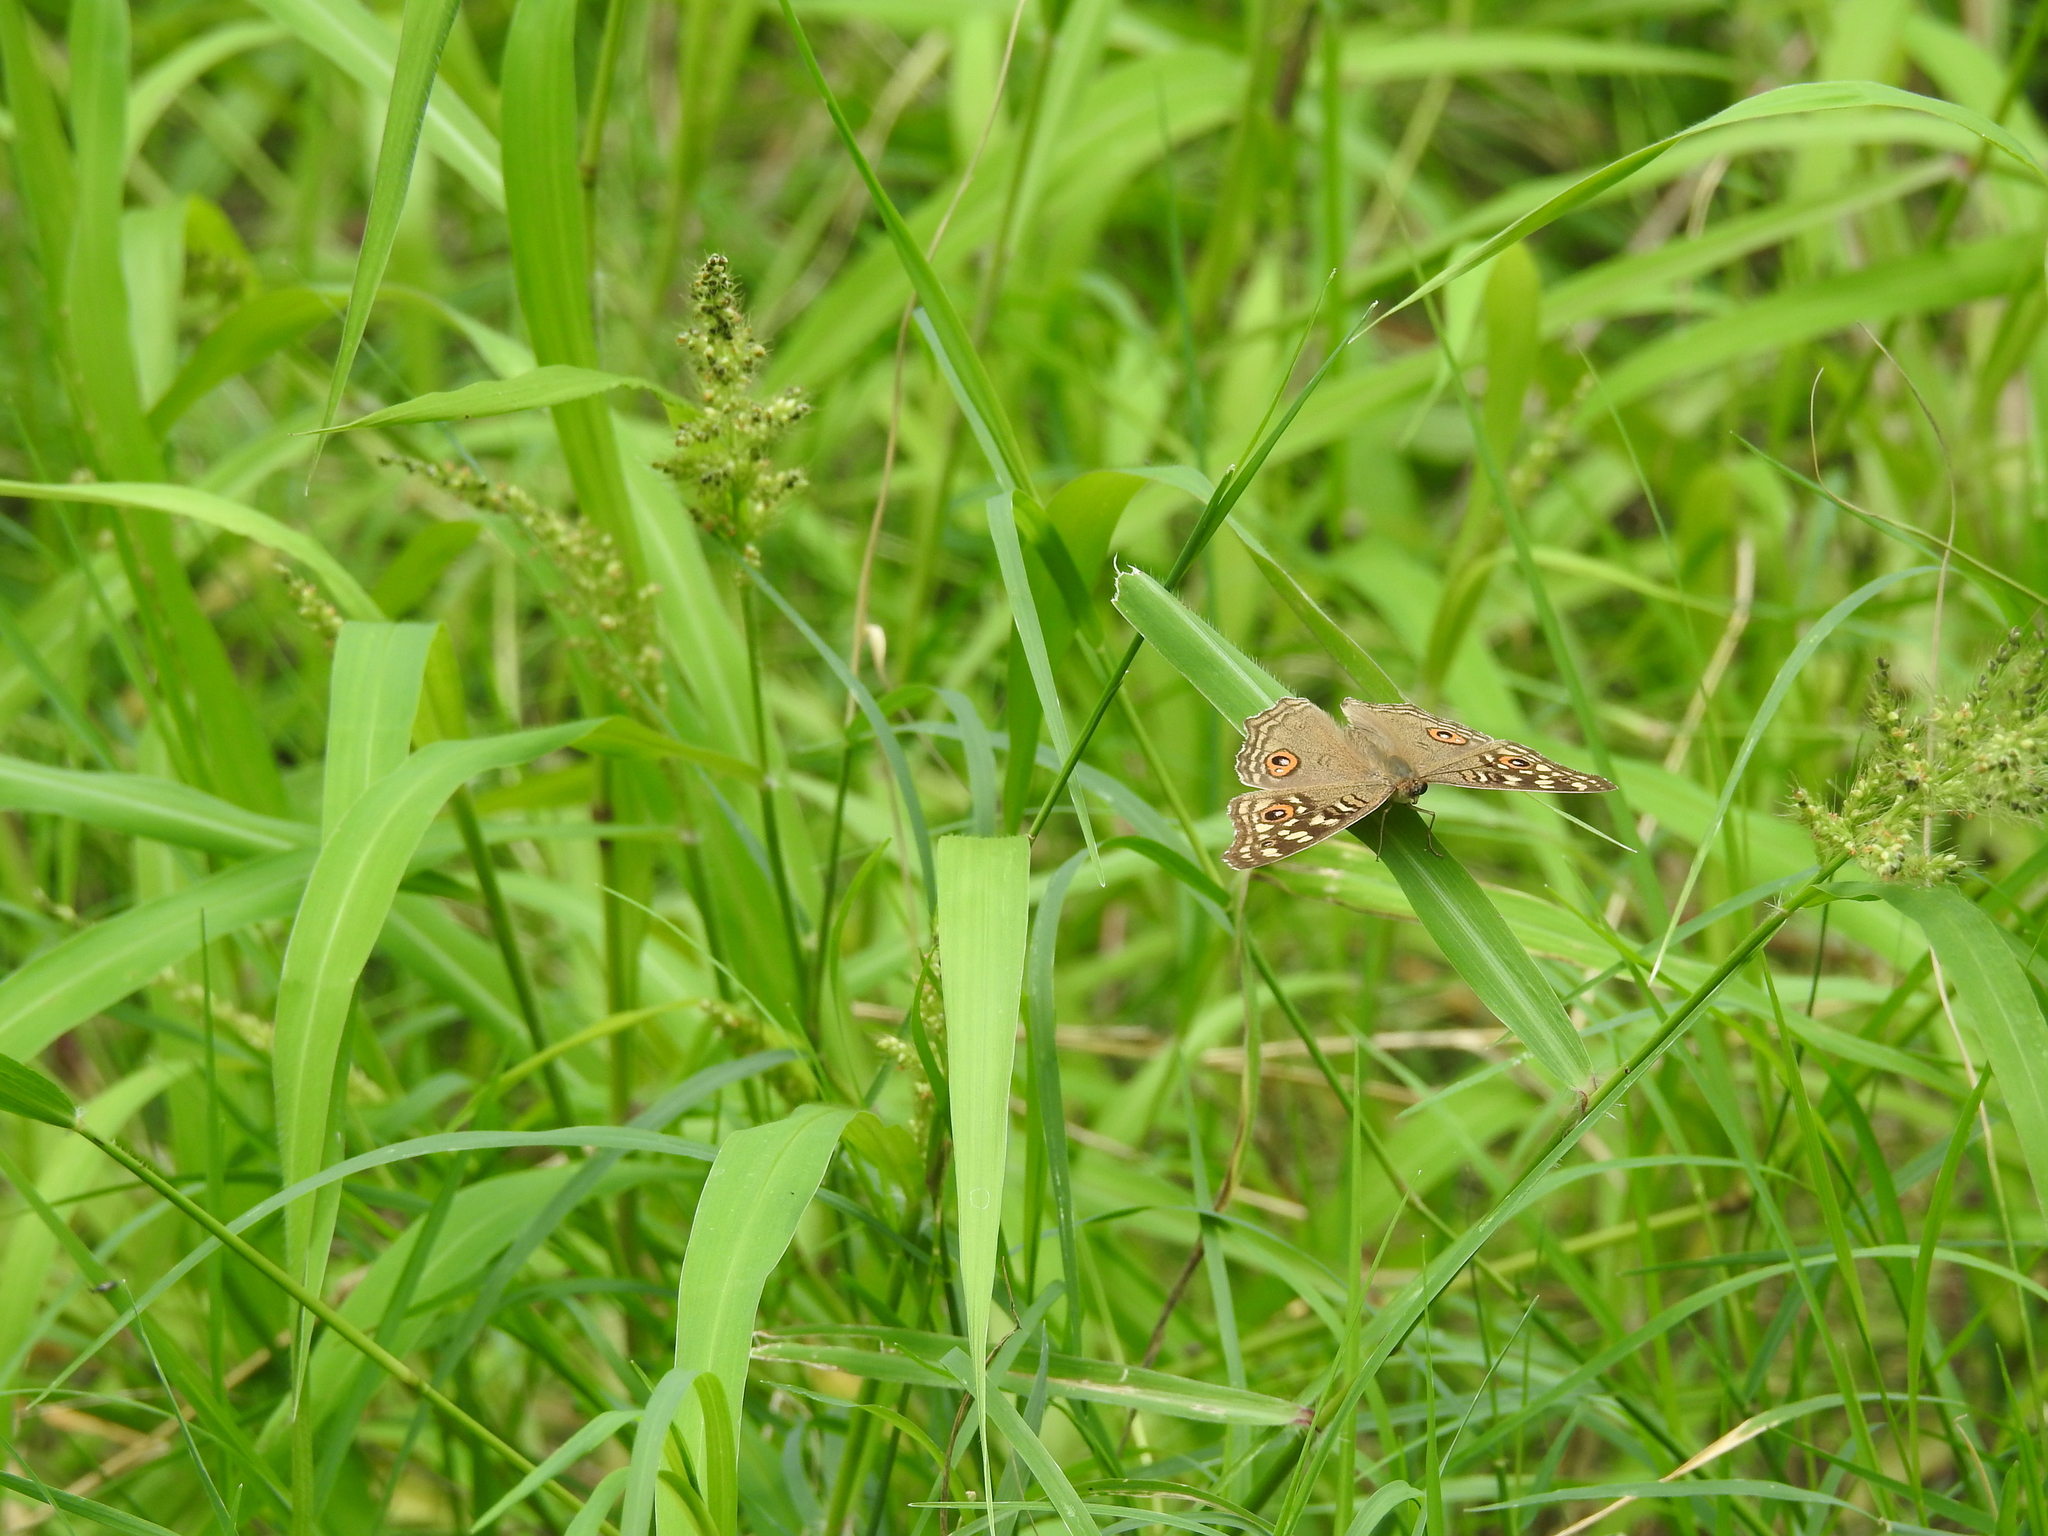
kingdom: Animalia
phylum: Arthropoda
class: Insecta
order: Lepidoptera
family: Nymphalidae
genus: Junonia
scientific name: Junonia lemonias
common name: Lemon pansy
